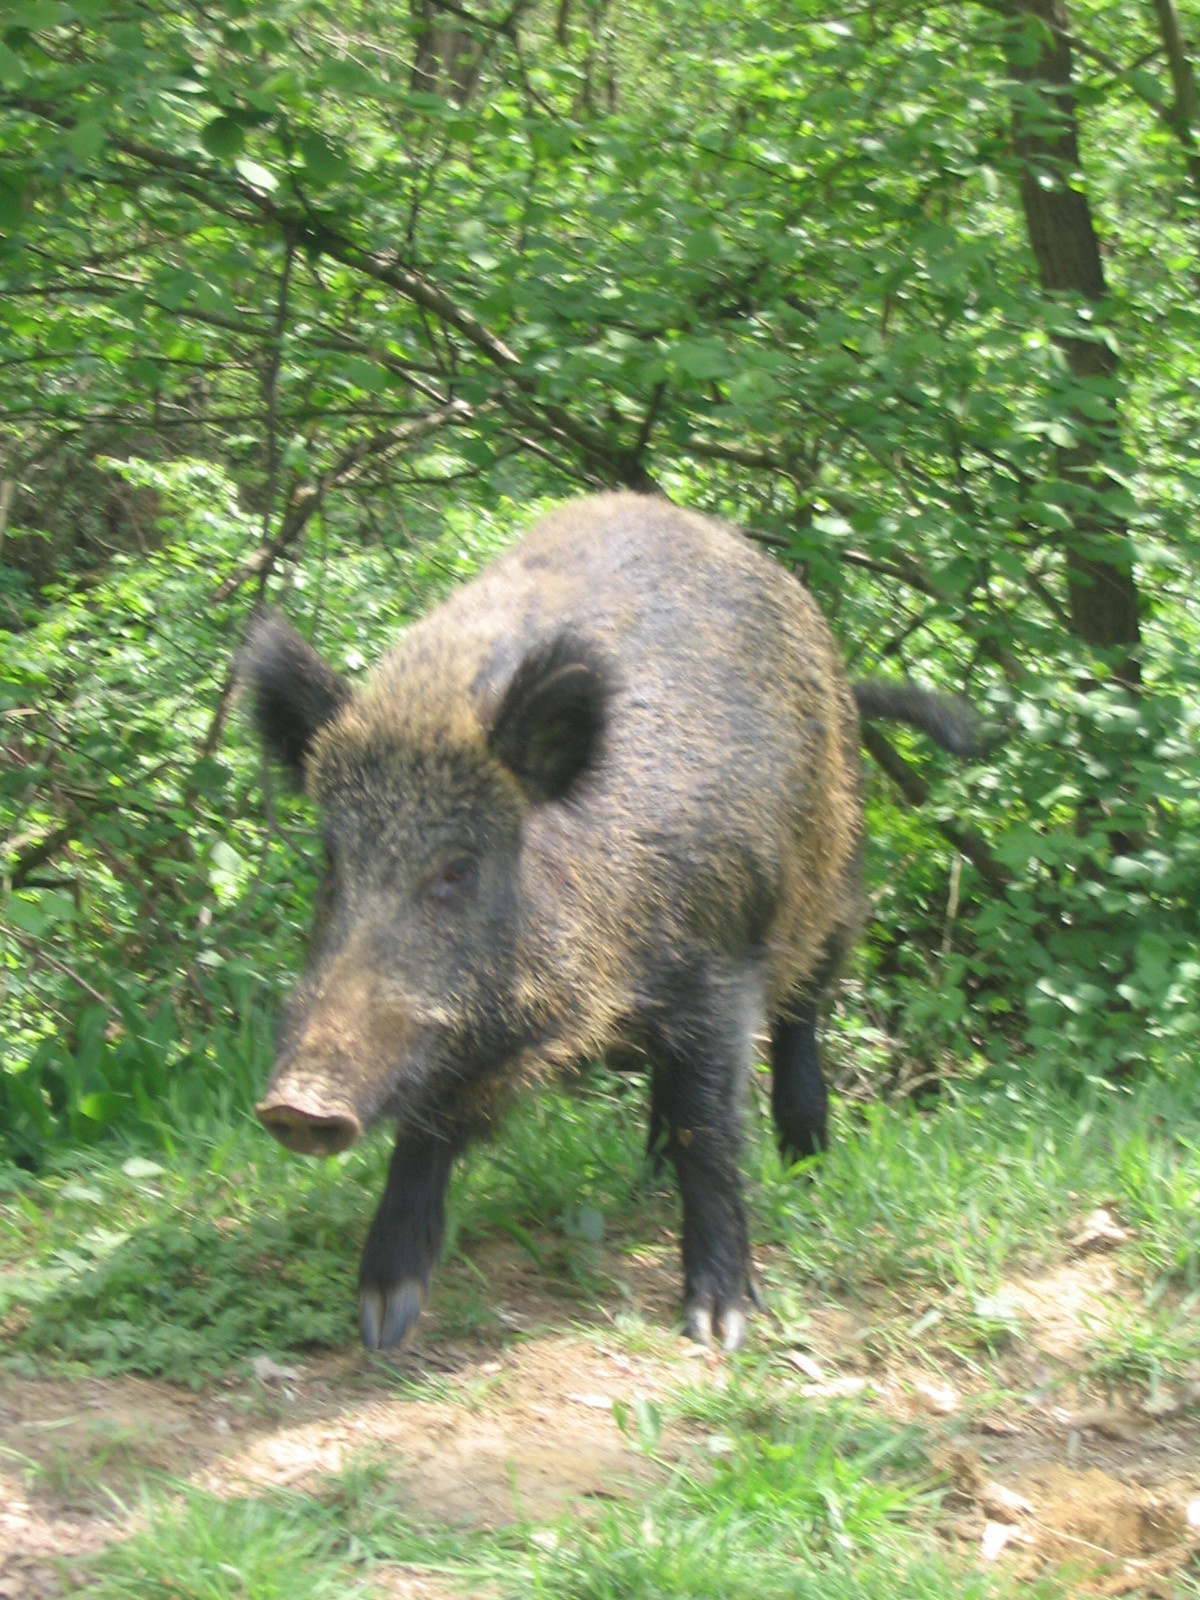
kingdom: Animalia
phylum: Chordata
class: Mammalia
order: Artiodactyla
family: Suidae
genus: Sus
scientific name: Sus scrofa
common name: Wild boar
